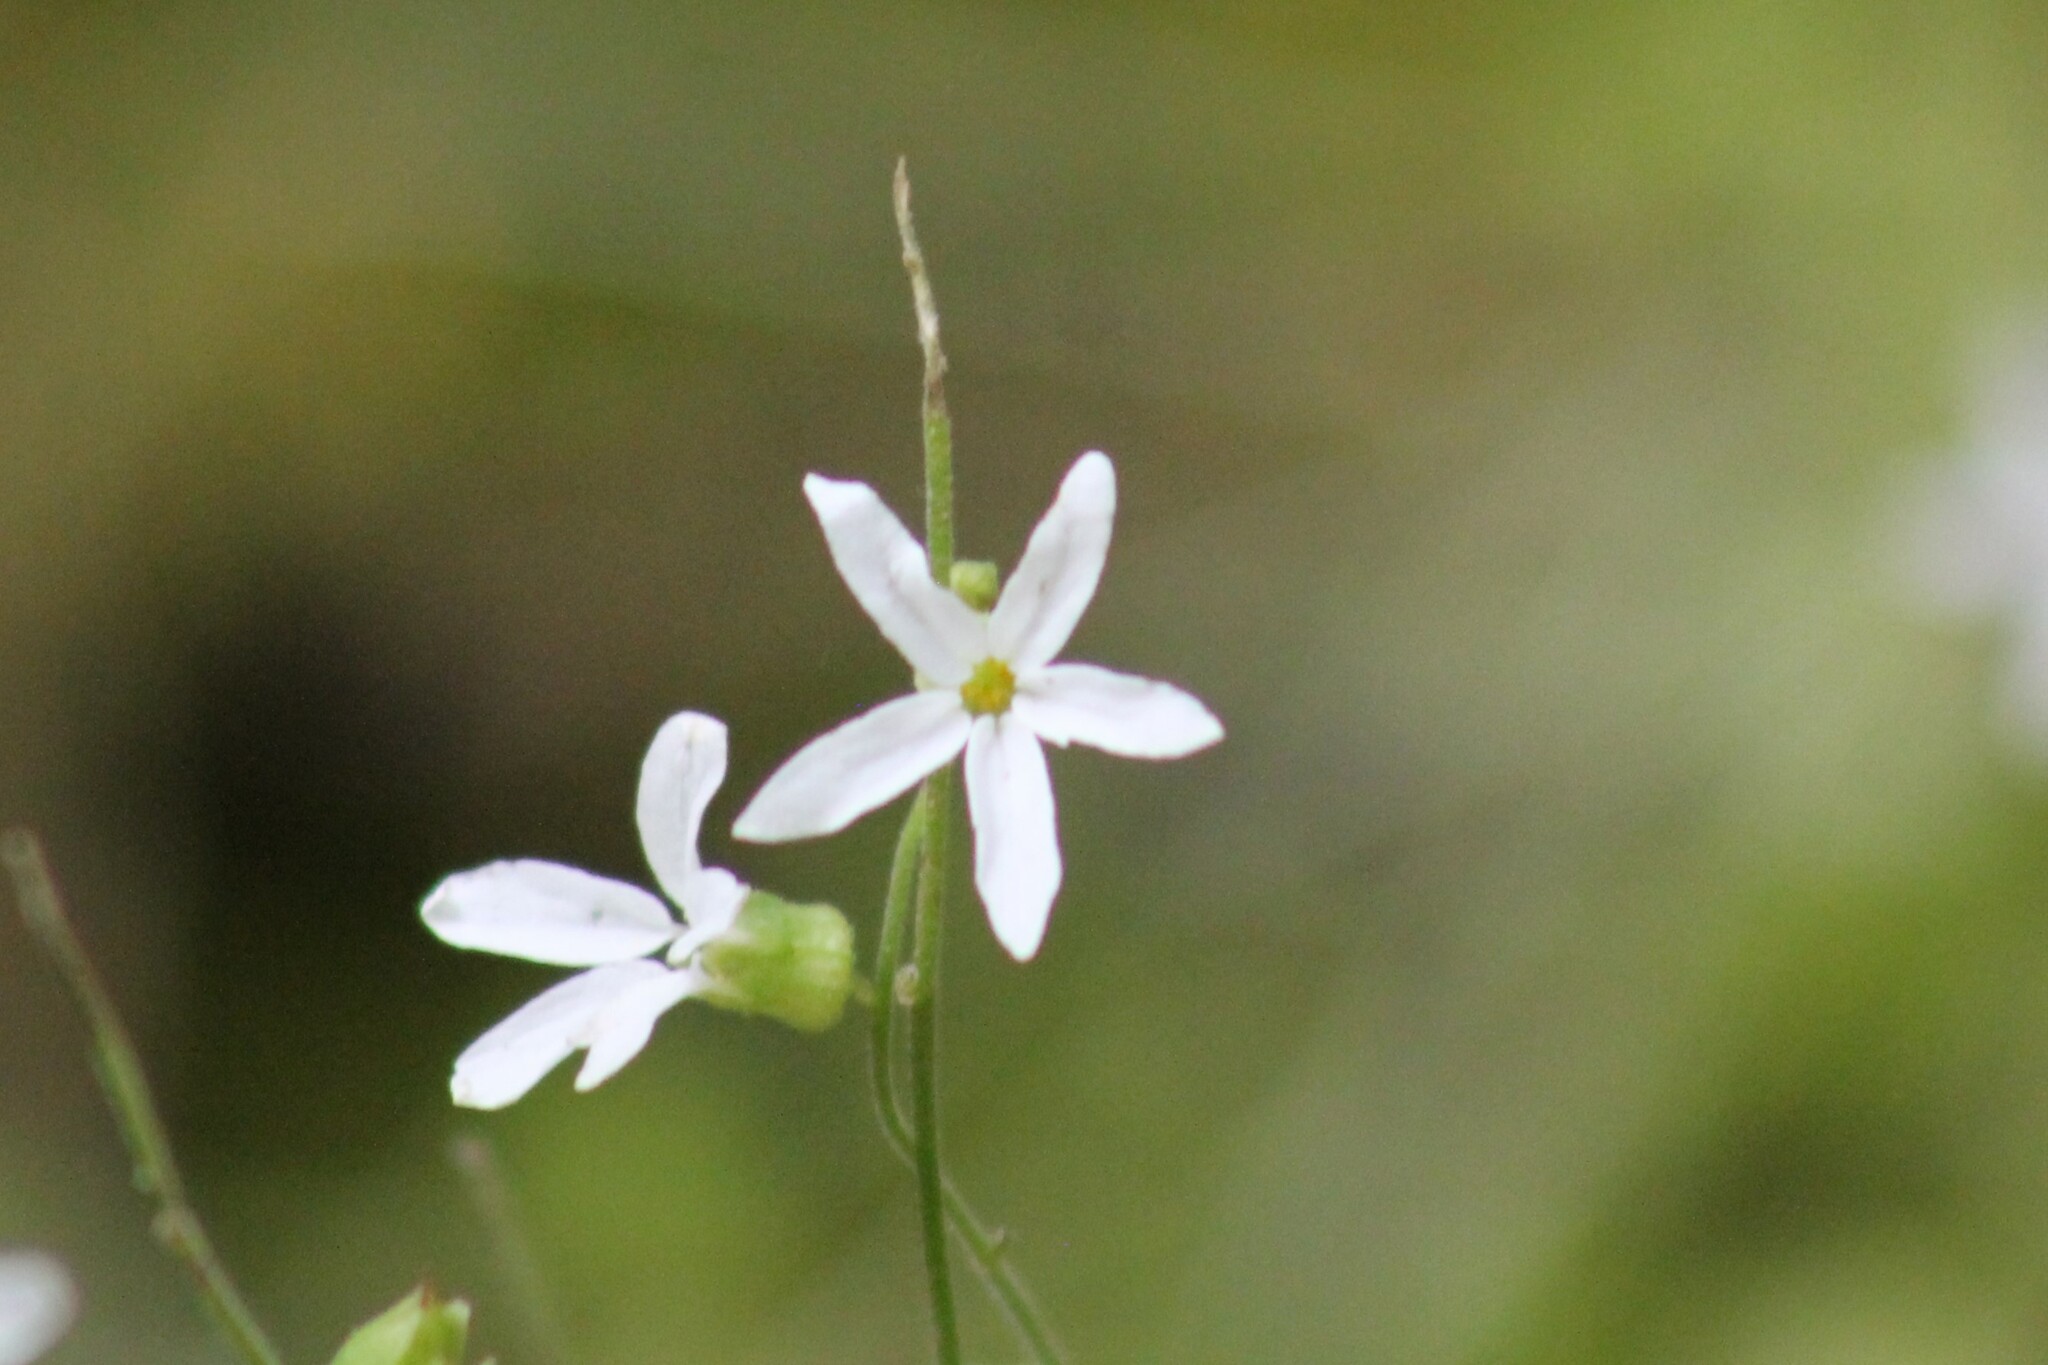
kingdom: Plantae
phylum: Tracheophyta
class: Magnoliopsida
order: Saxifragales
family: Saxifragaceae
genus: Lithophragma
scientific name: Lithophragma heterophyllum
